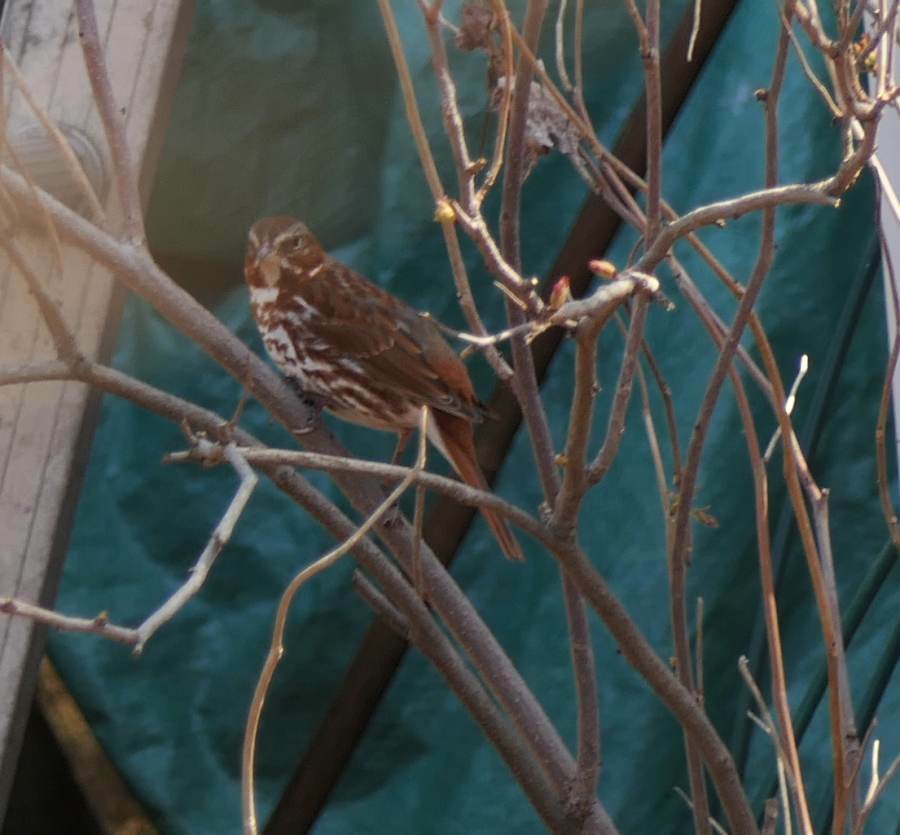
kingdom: Animalia
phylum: Chordata
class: Aves
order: Passeriformes
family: Passerellidae
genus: Passerella
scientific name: Passerella iliaca
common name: Fox sparrow
